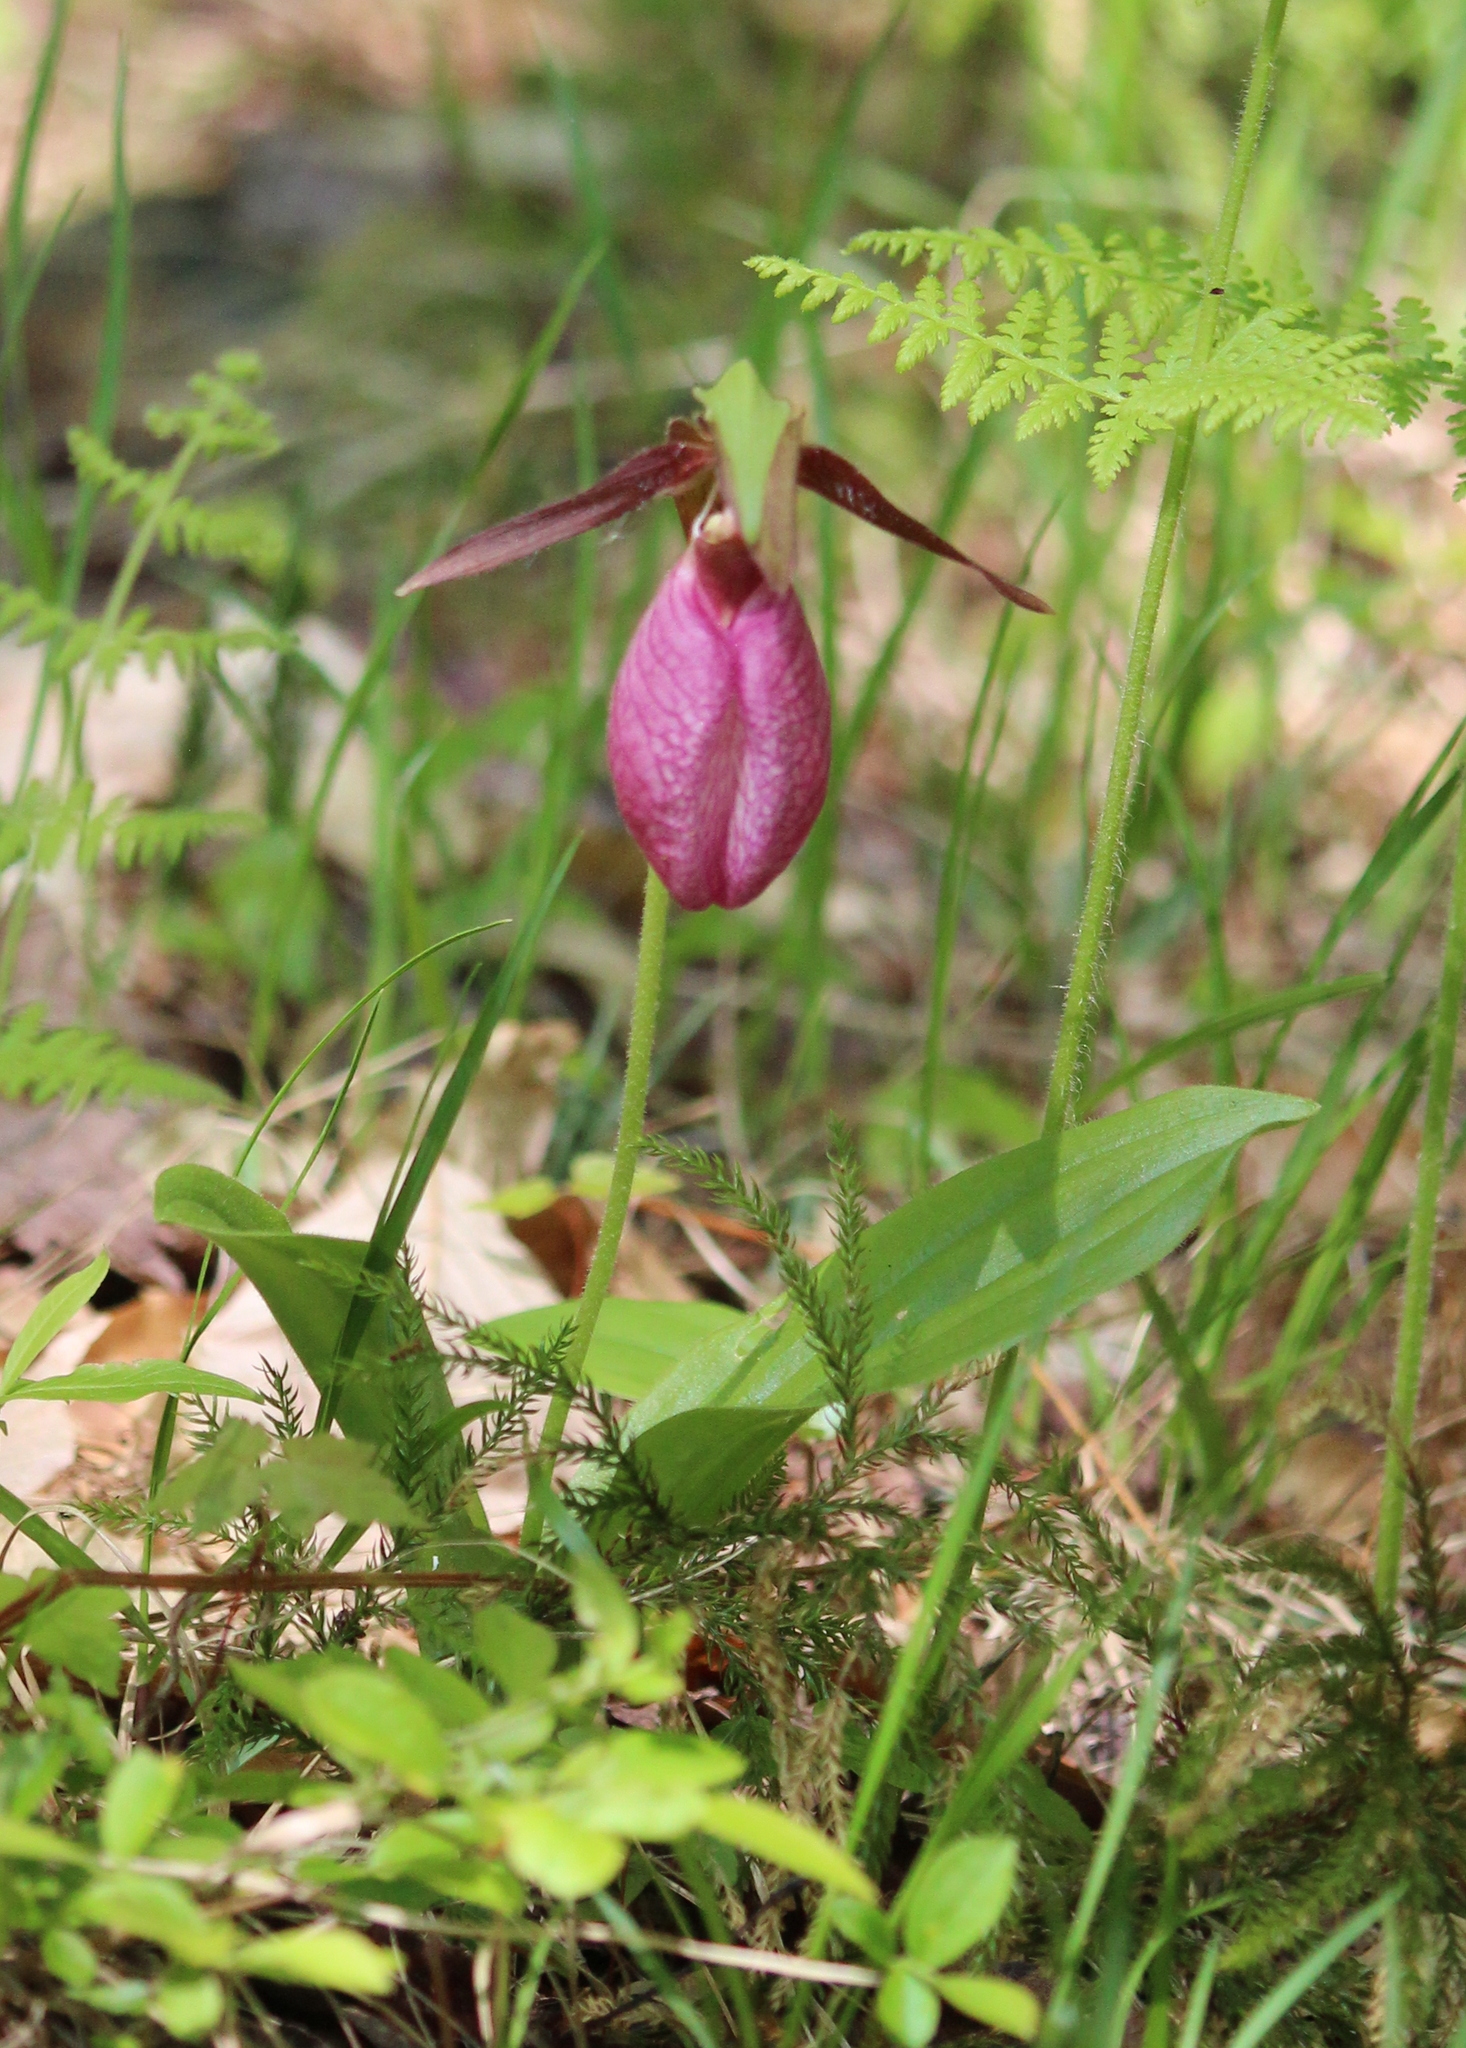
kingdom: Plantae
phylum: Tracheophyta
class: Liliopsida
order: Asparagales
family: Orchidaceae
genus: Cypripedium
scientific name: Cypripedium acaule
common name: Pink lady's-slipper
